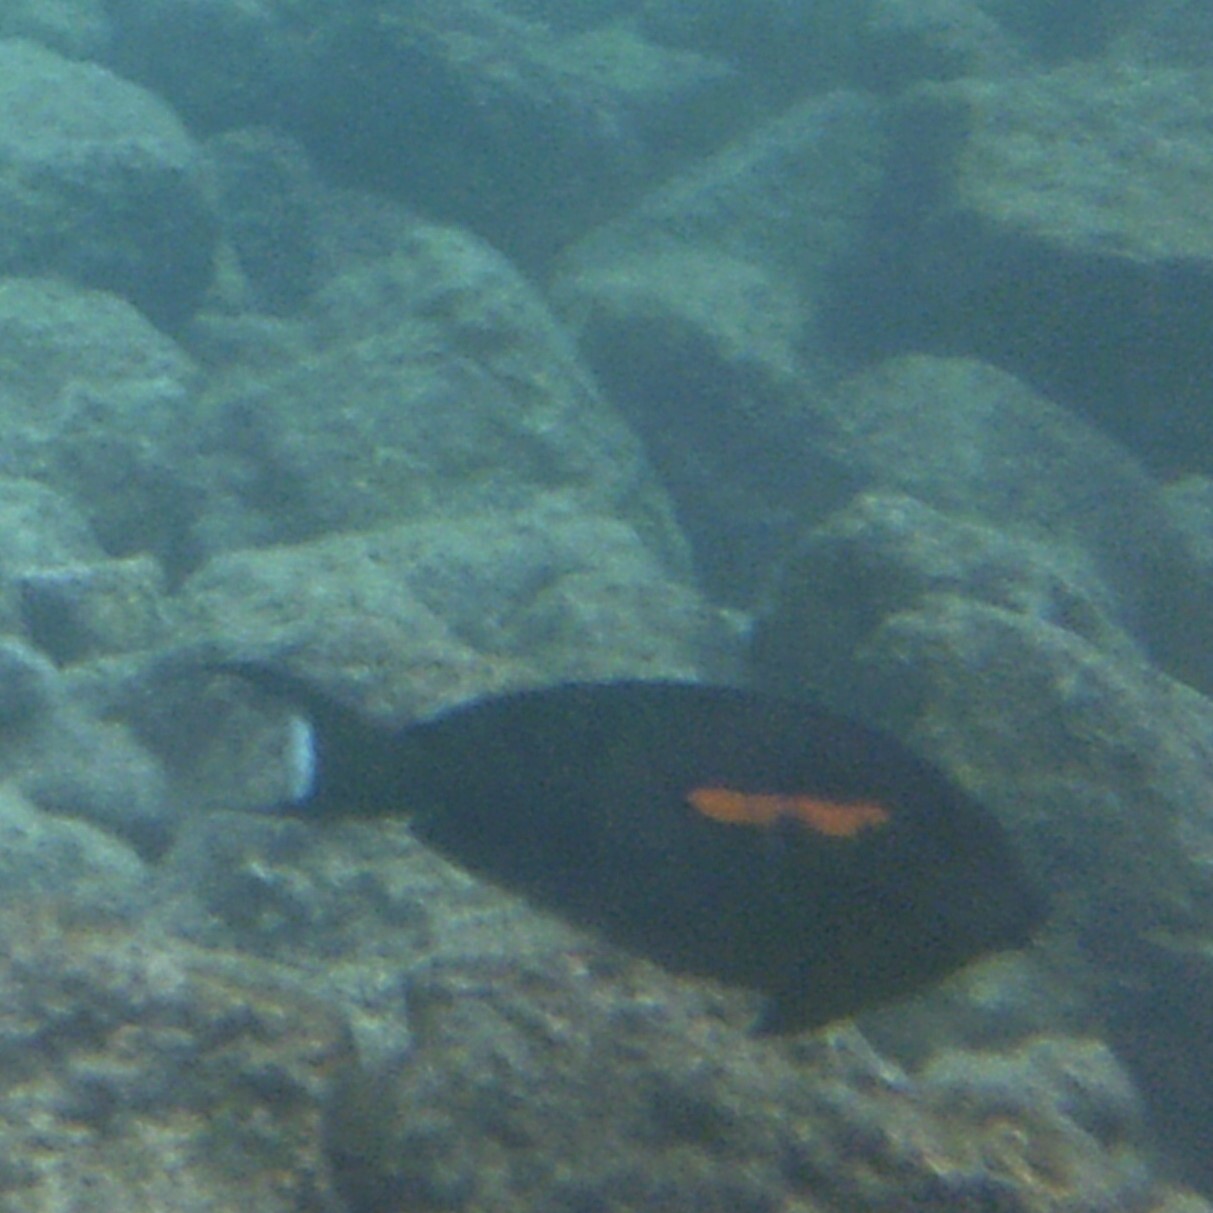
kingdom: Animalia
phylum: Chordata
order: Perciformes
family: Acanthuridae
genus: Acanthurus
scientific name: Acanthurus olivaceus
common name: Gendarme fish
